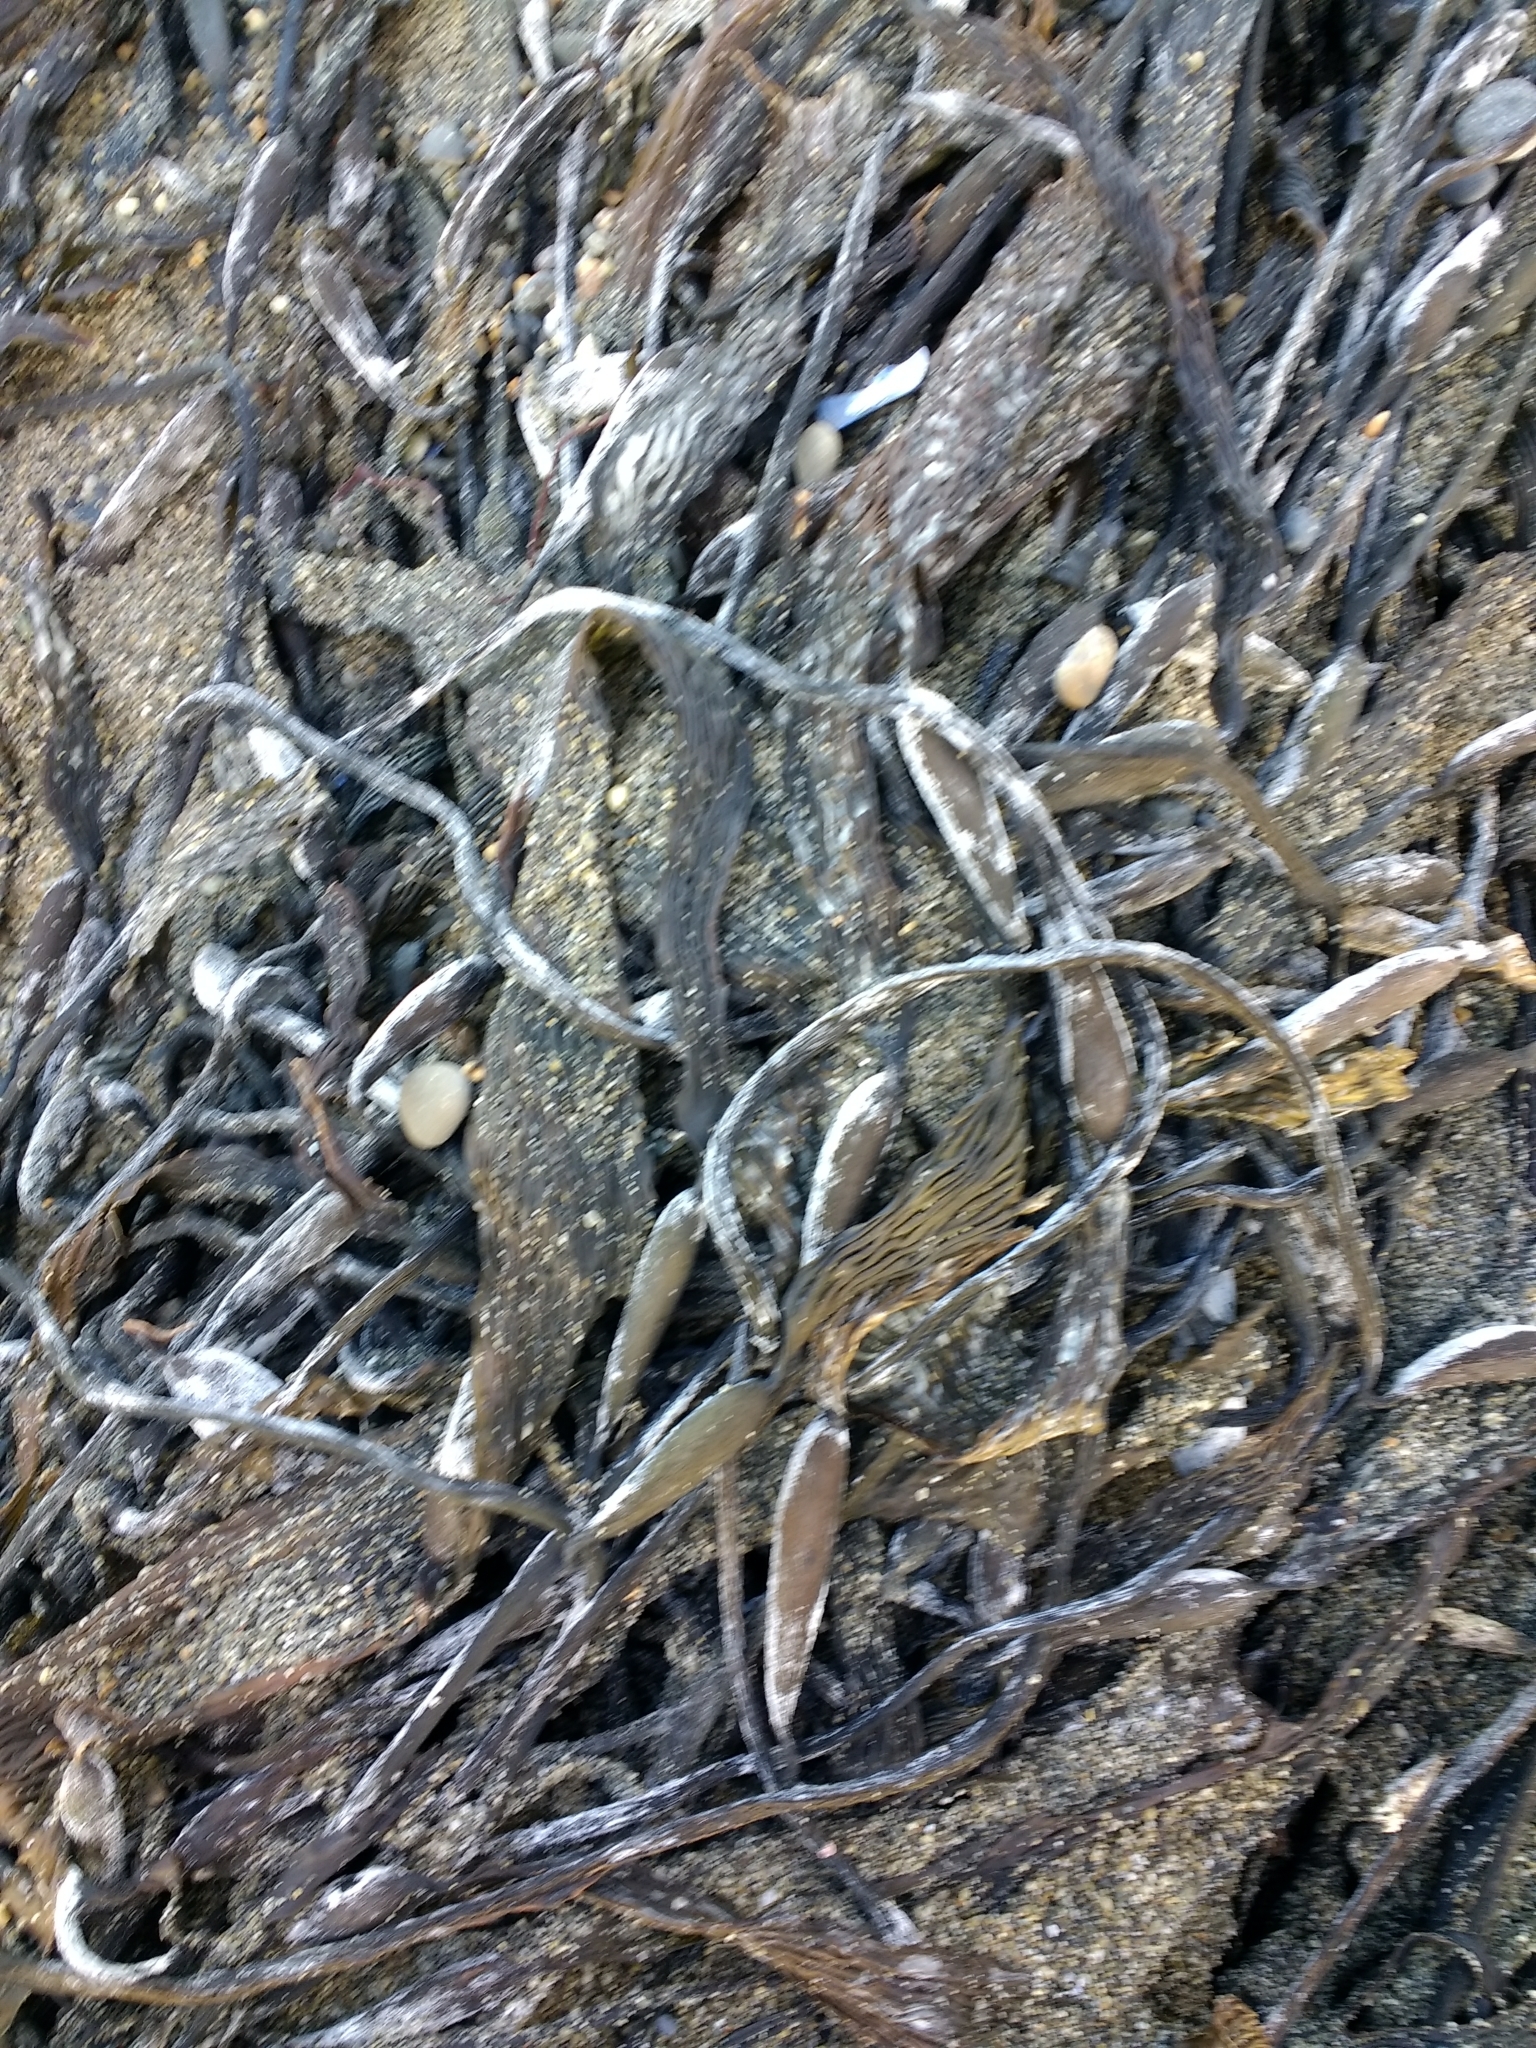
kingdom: Chromista
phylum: Ochrophyta
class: Phaeophyceae
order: Laminariales
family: Laminariaceae
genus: Macrocystis
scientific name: Macrocystis pyrifera
